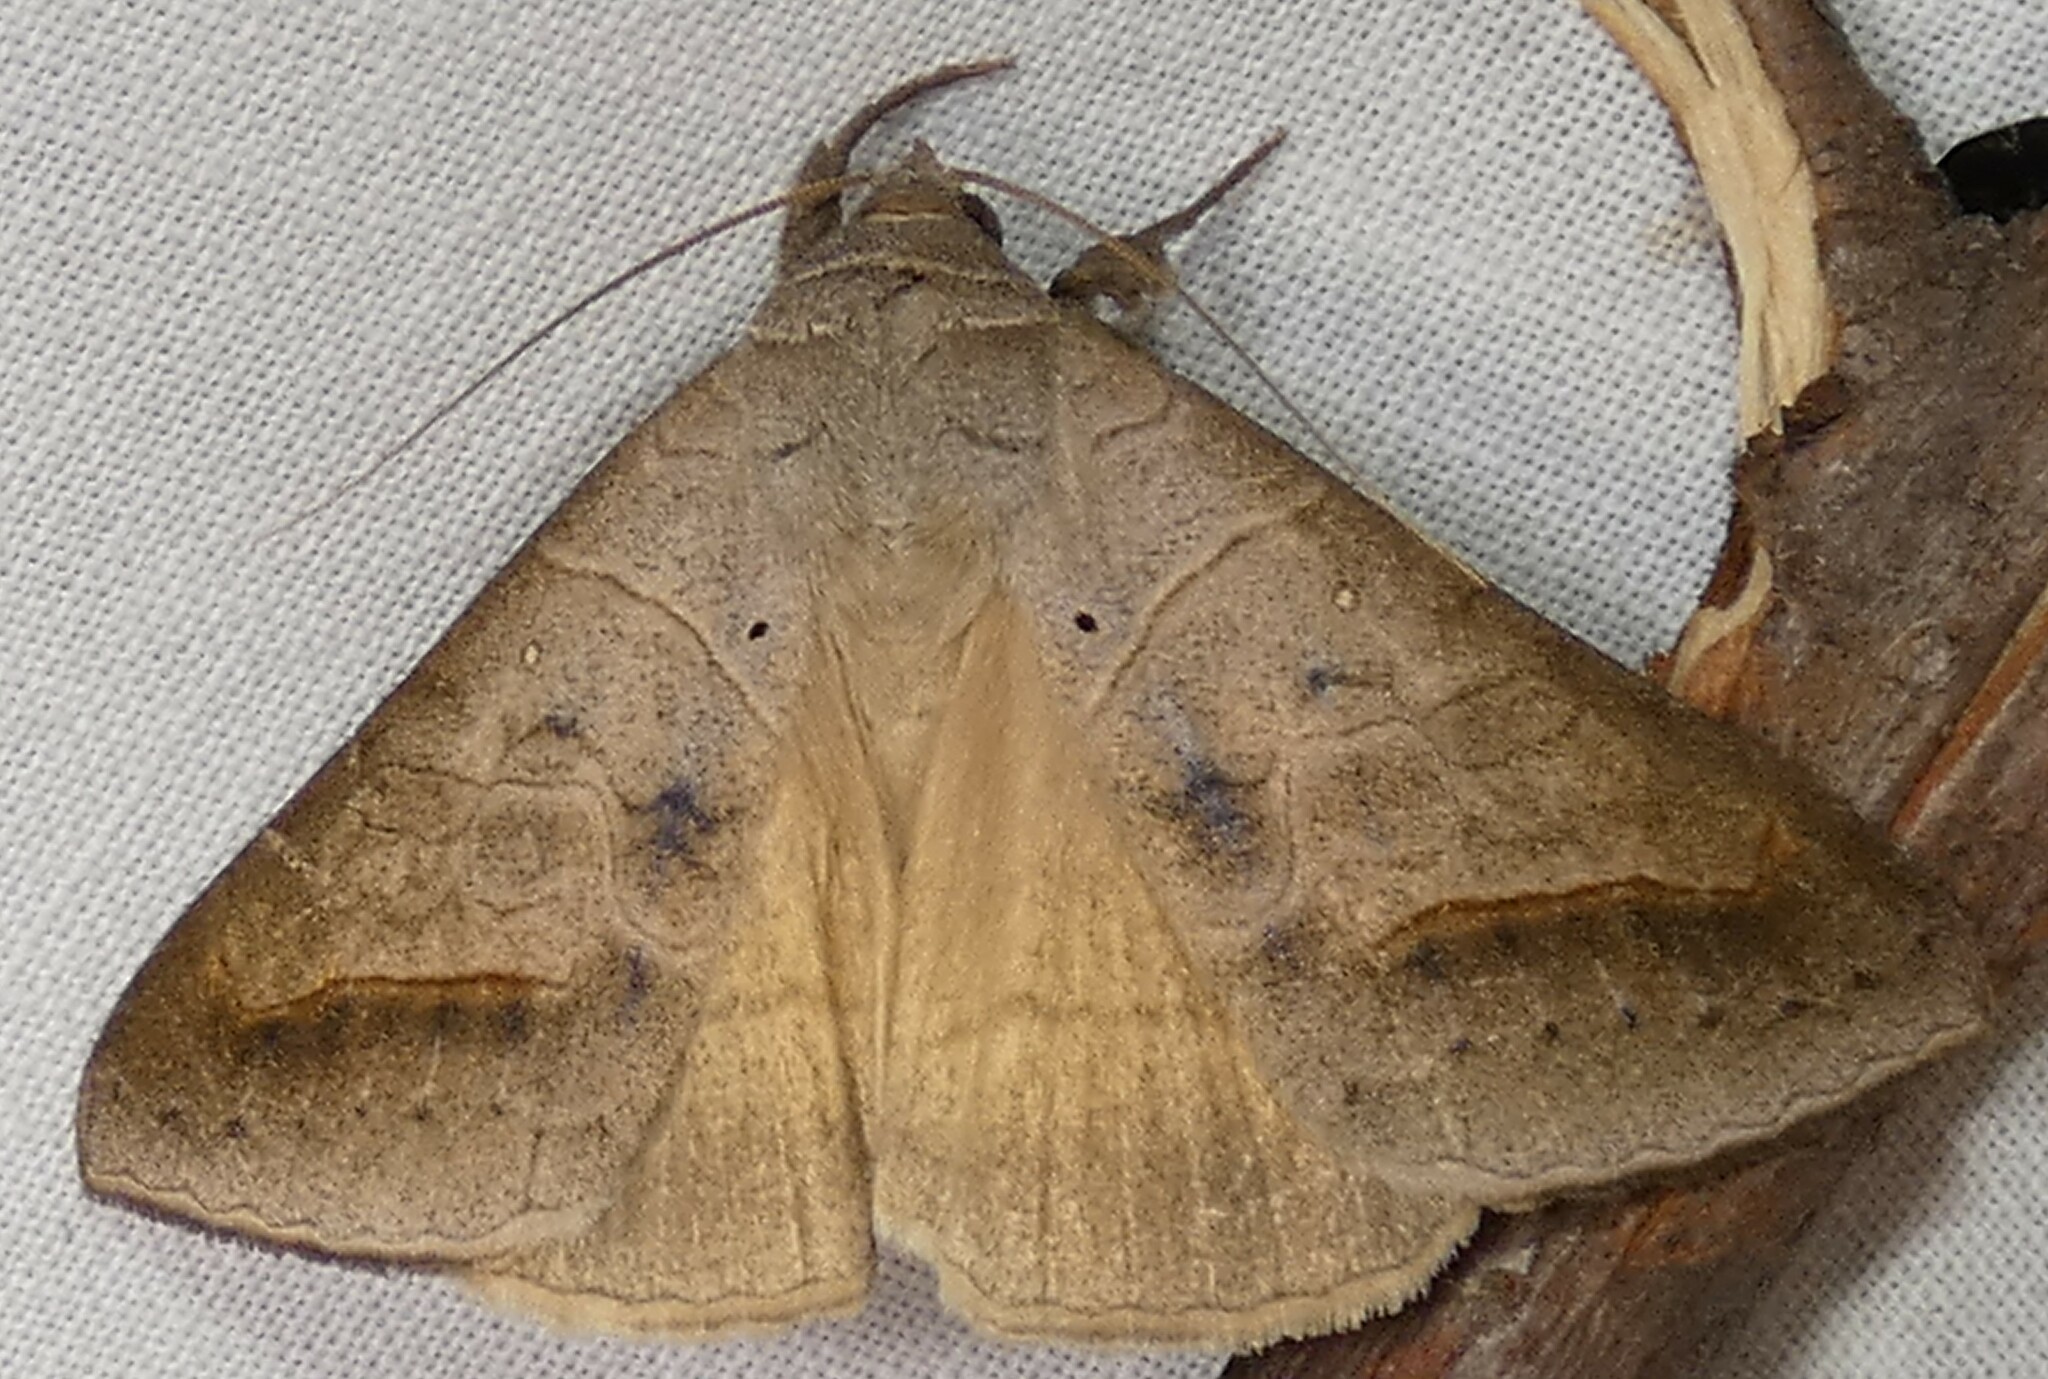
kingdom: Animalia
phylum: Arthropoda
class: Insecta
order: Lepidoptera
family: Erebidae
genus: Mocis
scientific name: Mocis marcida
